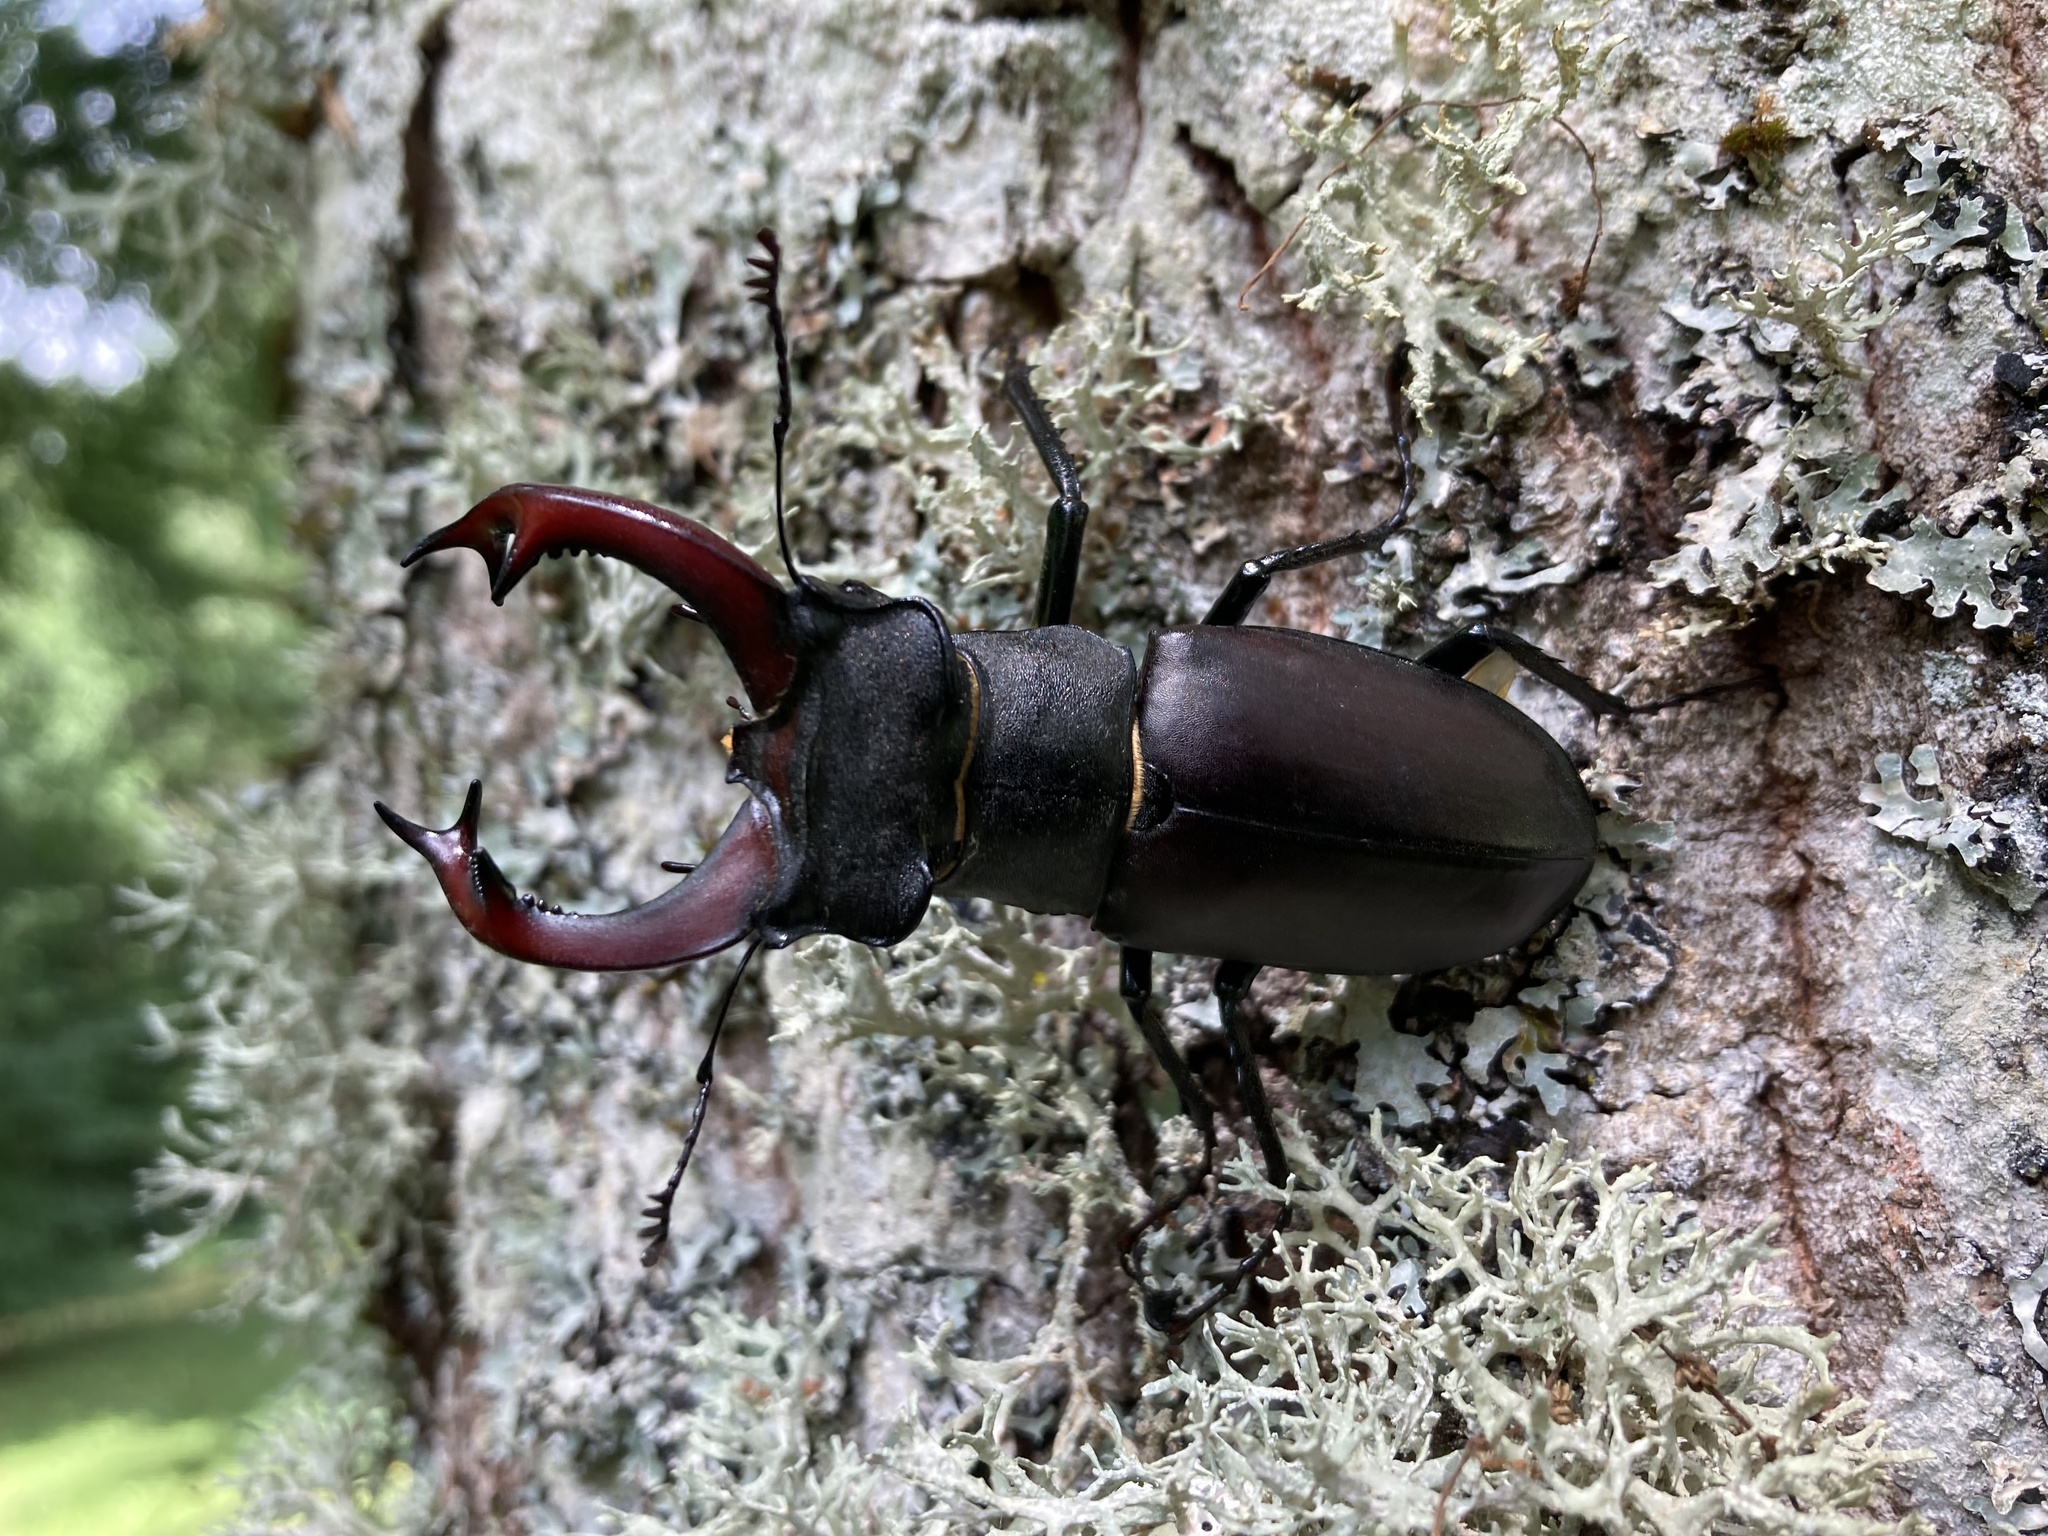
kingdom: Animalia
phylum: Arthropoda
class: Insecta
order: Coleoptera
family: Lucanidae
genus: Lucanus
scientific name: Lucanus cervus
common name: Stag beetle
